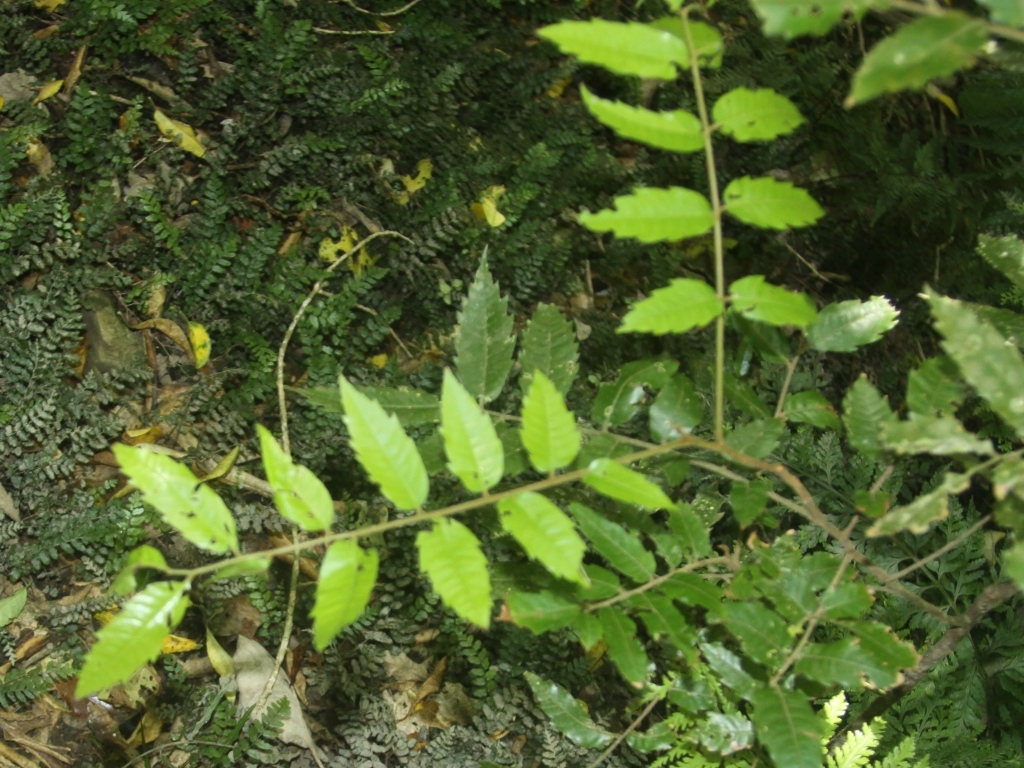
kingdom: Plantae
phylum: Tracheophyta
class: Magnoliopsida
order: Sapindales
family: Sapindaceae
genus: Alectryon
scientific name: Alectryon excelsus
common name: Three kings titoki
